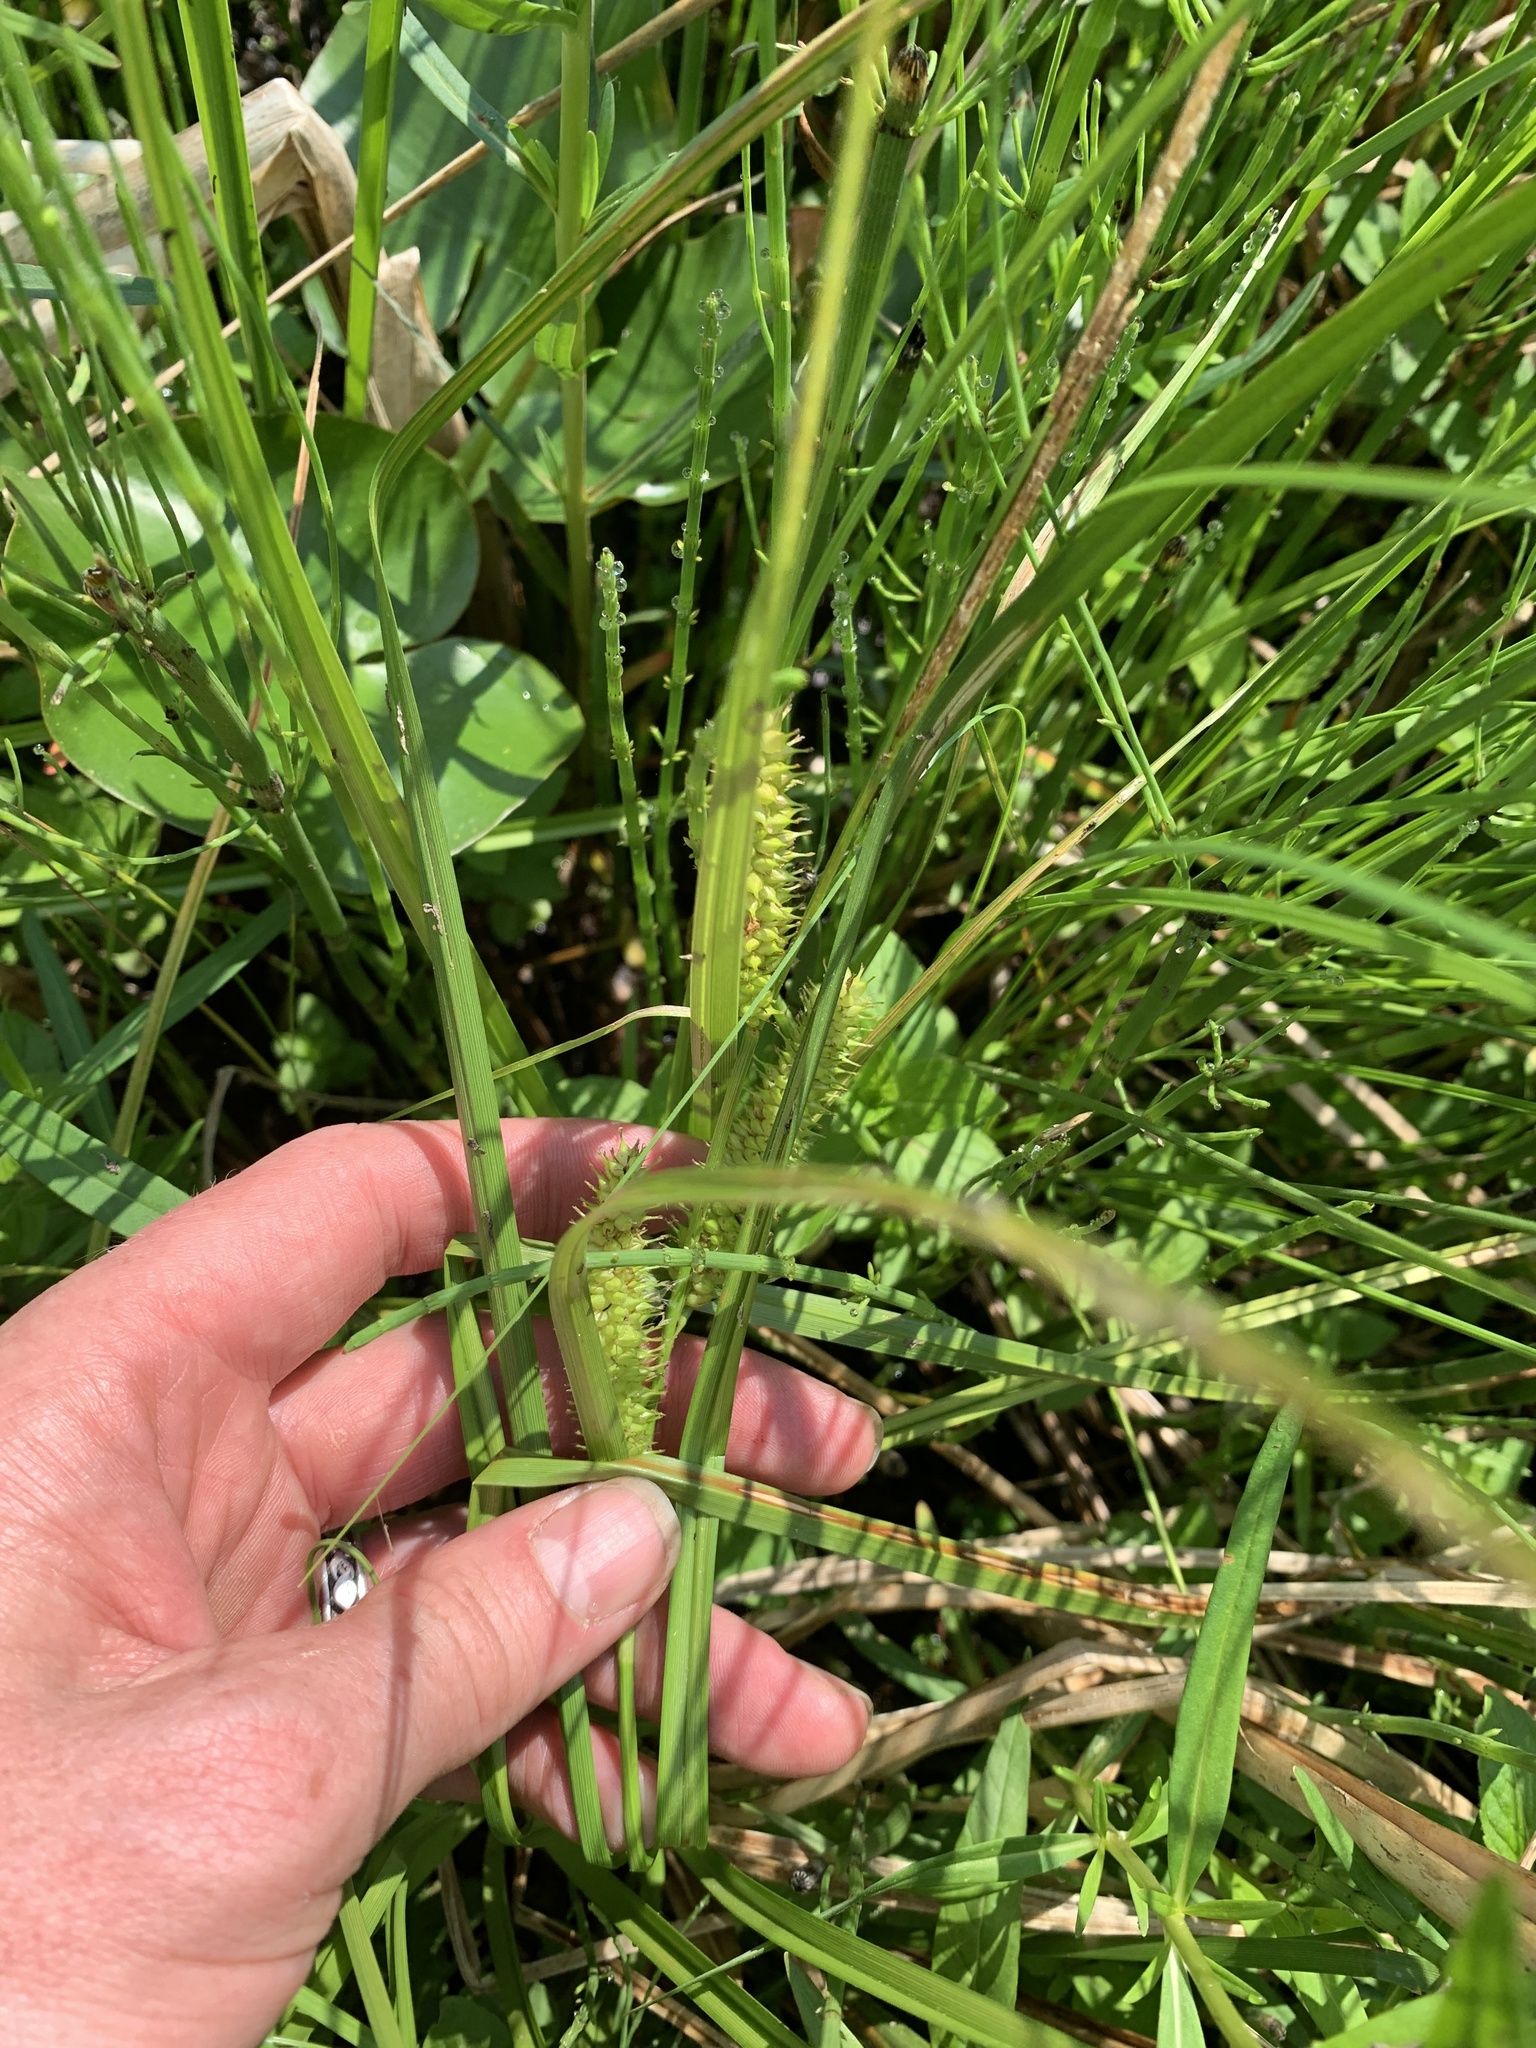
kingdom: Plantae
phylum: Tracheophyta
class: Liliopsida
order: Poales
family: Cyperaceae
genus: Carex
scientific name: Carex utriculata
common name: Beaked sedge
